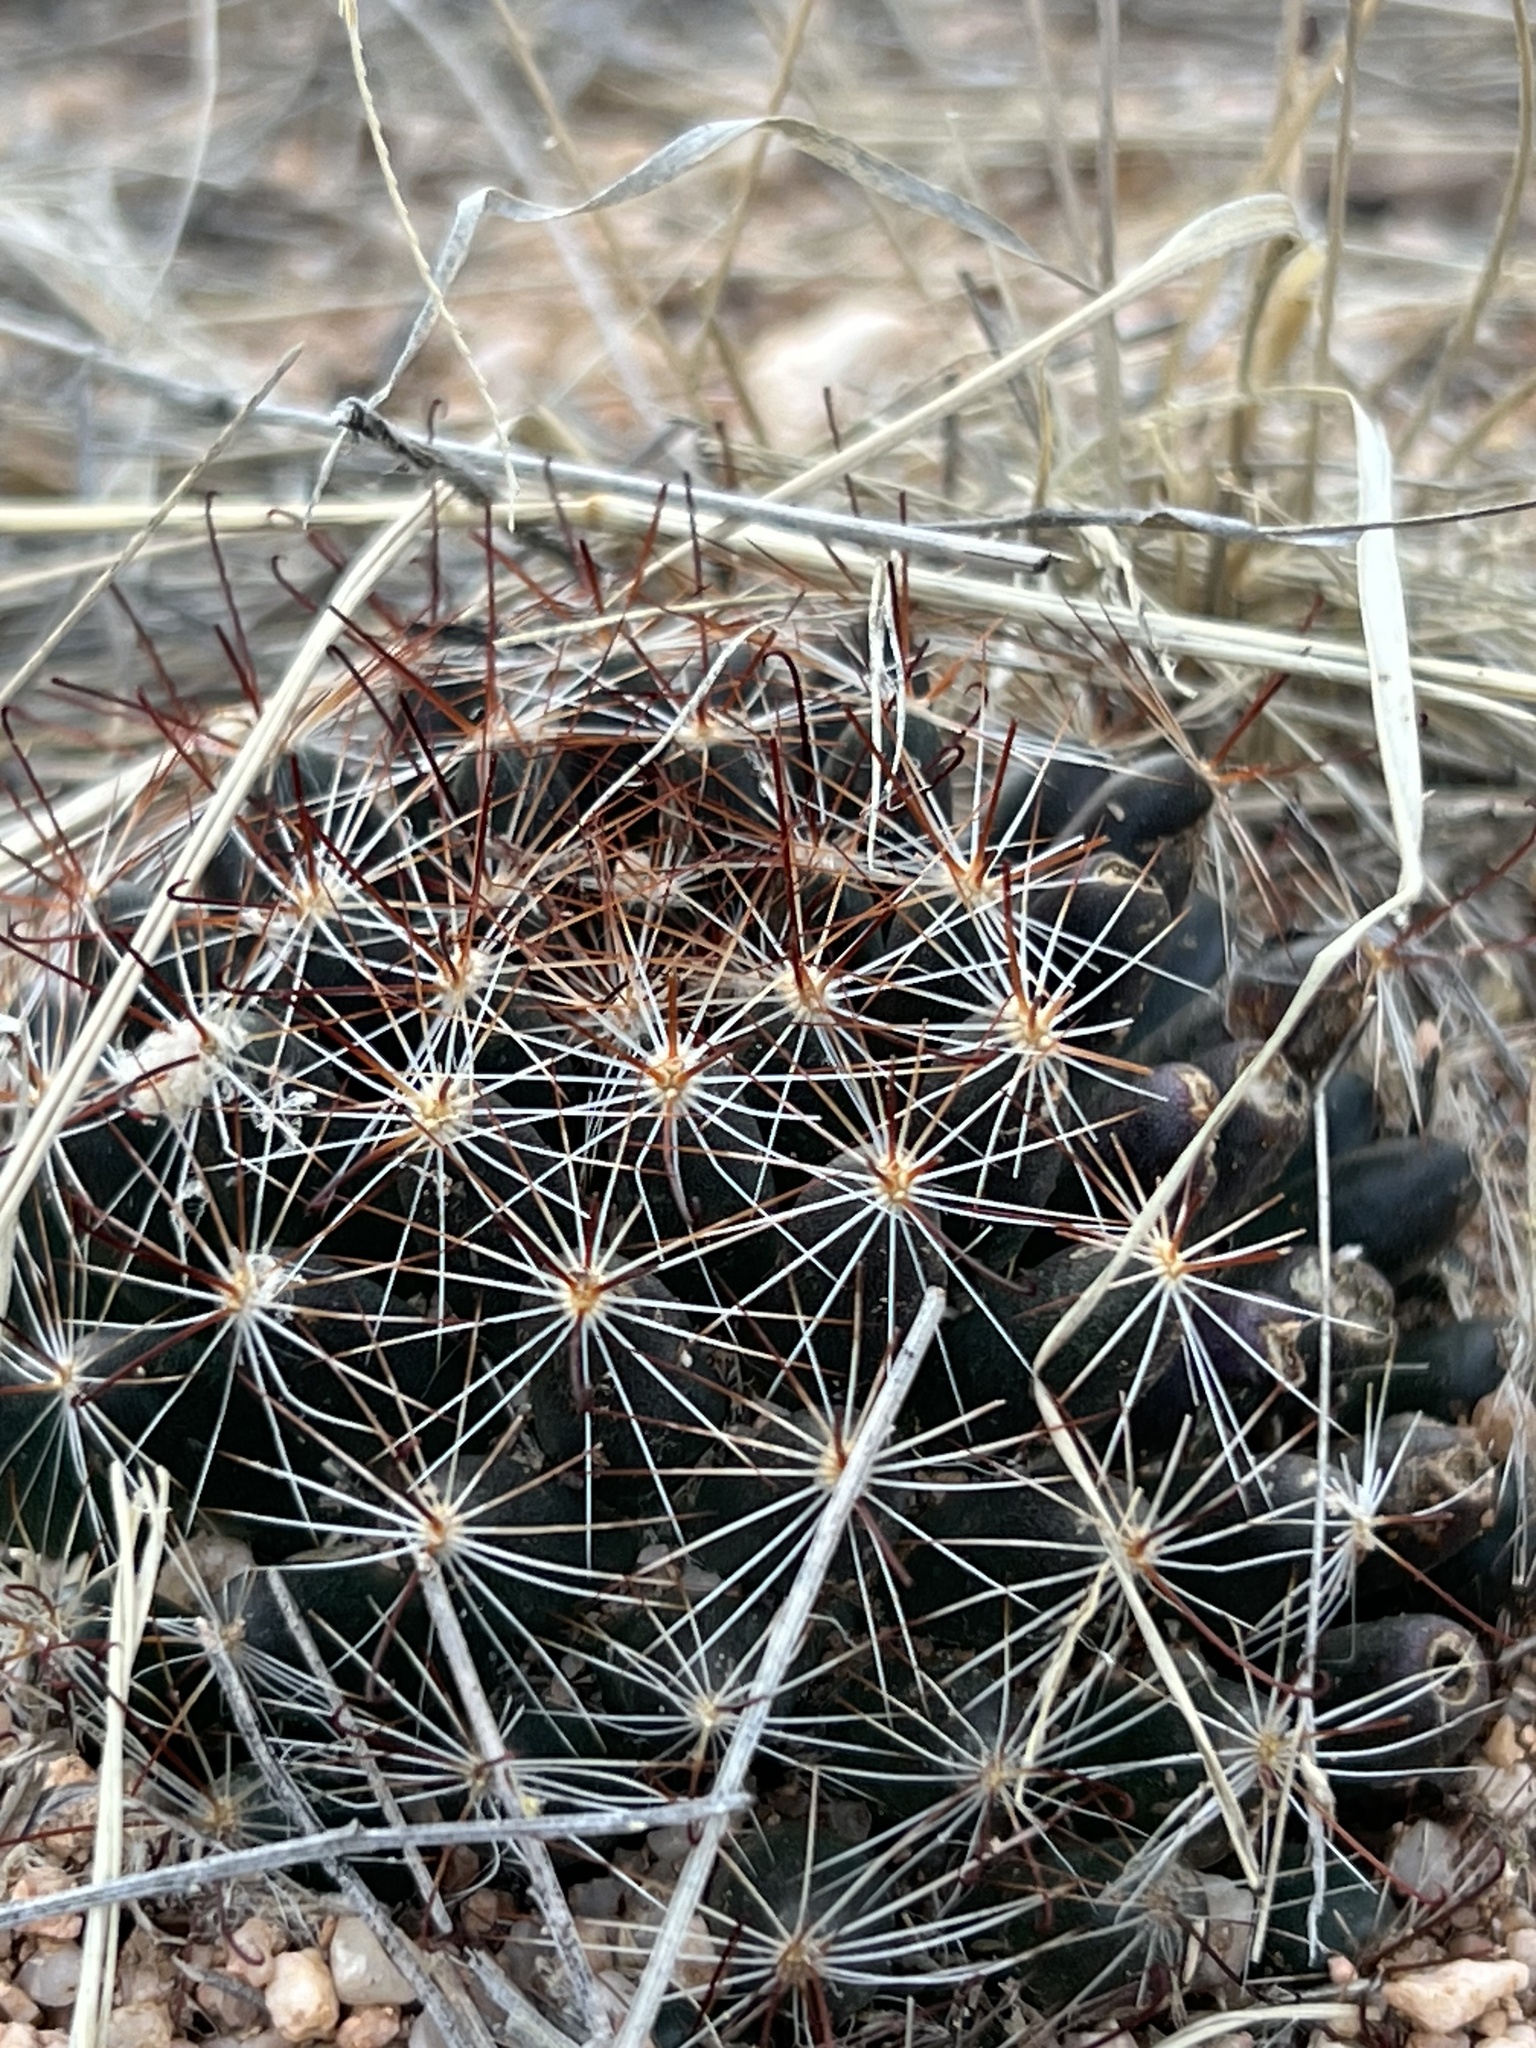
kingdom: Plantae
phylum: Tracheophyta
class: Magnoliopsida
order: Caryophyllales
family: Cactaceae
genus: Cochemiea
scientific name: Cochemiea wrightii
